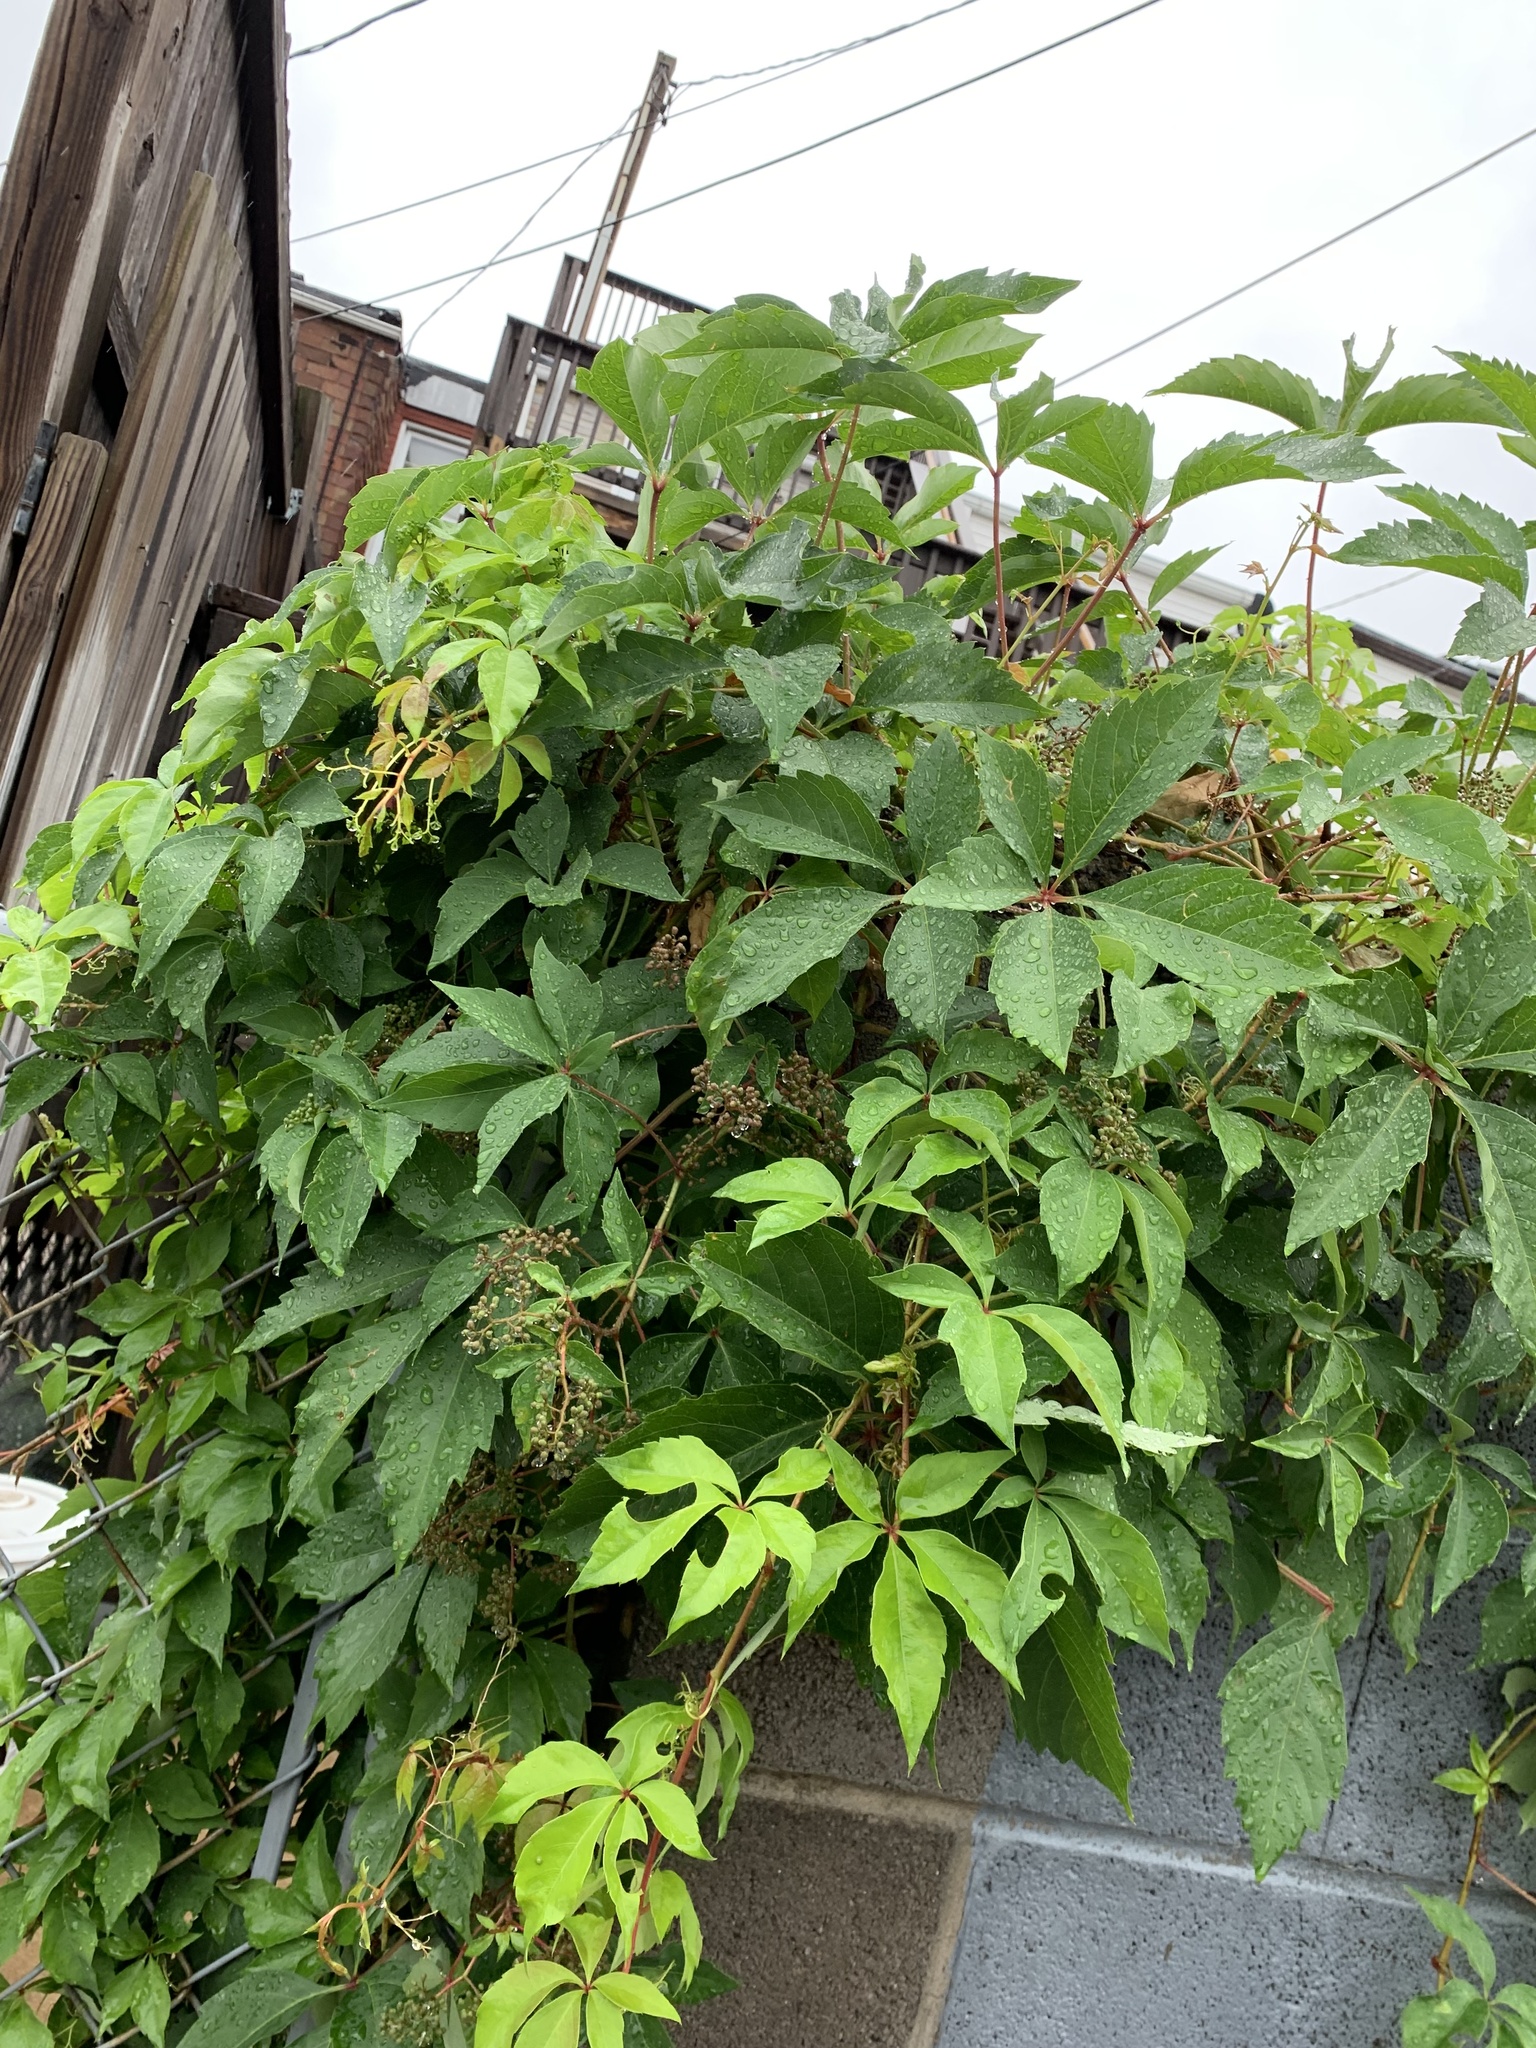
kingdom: Plantae
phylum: Tracheophyta
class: Magnoliopsida
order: Vitales
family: Vitaceae
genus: Parthenocissus
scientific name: Parthenocissus quinquefolia
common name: Virginia-creeper
